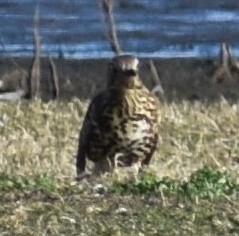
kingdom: Animalia
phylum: Chordata
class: Aves
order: Passeriformes
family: Turdidae
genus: Turdus
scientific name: Turdus viscivorus
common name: Mistle thrush
